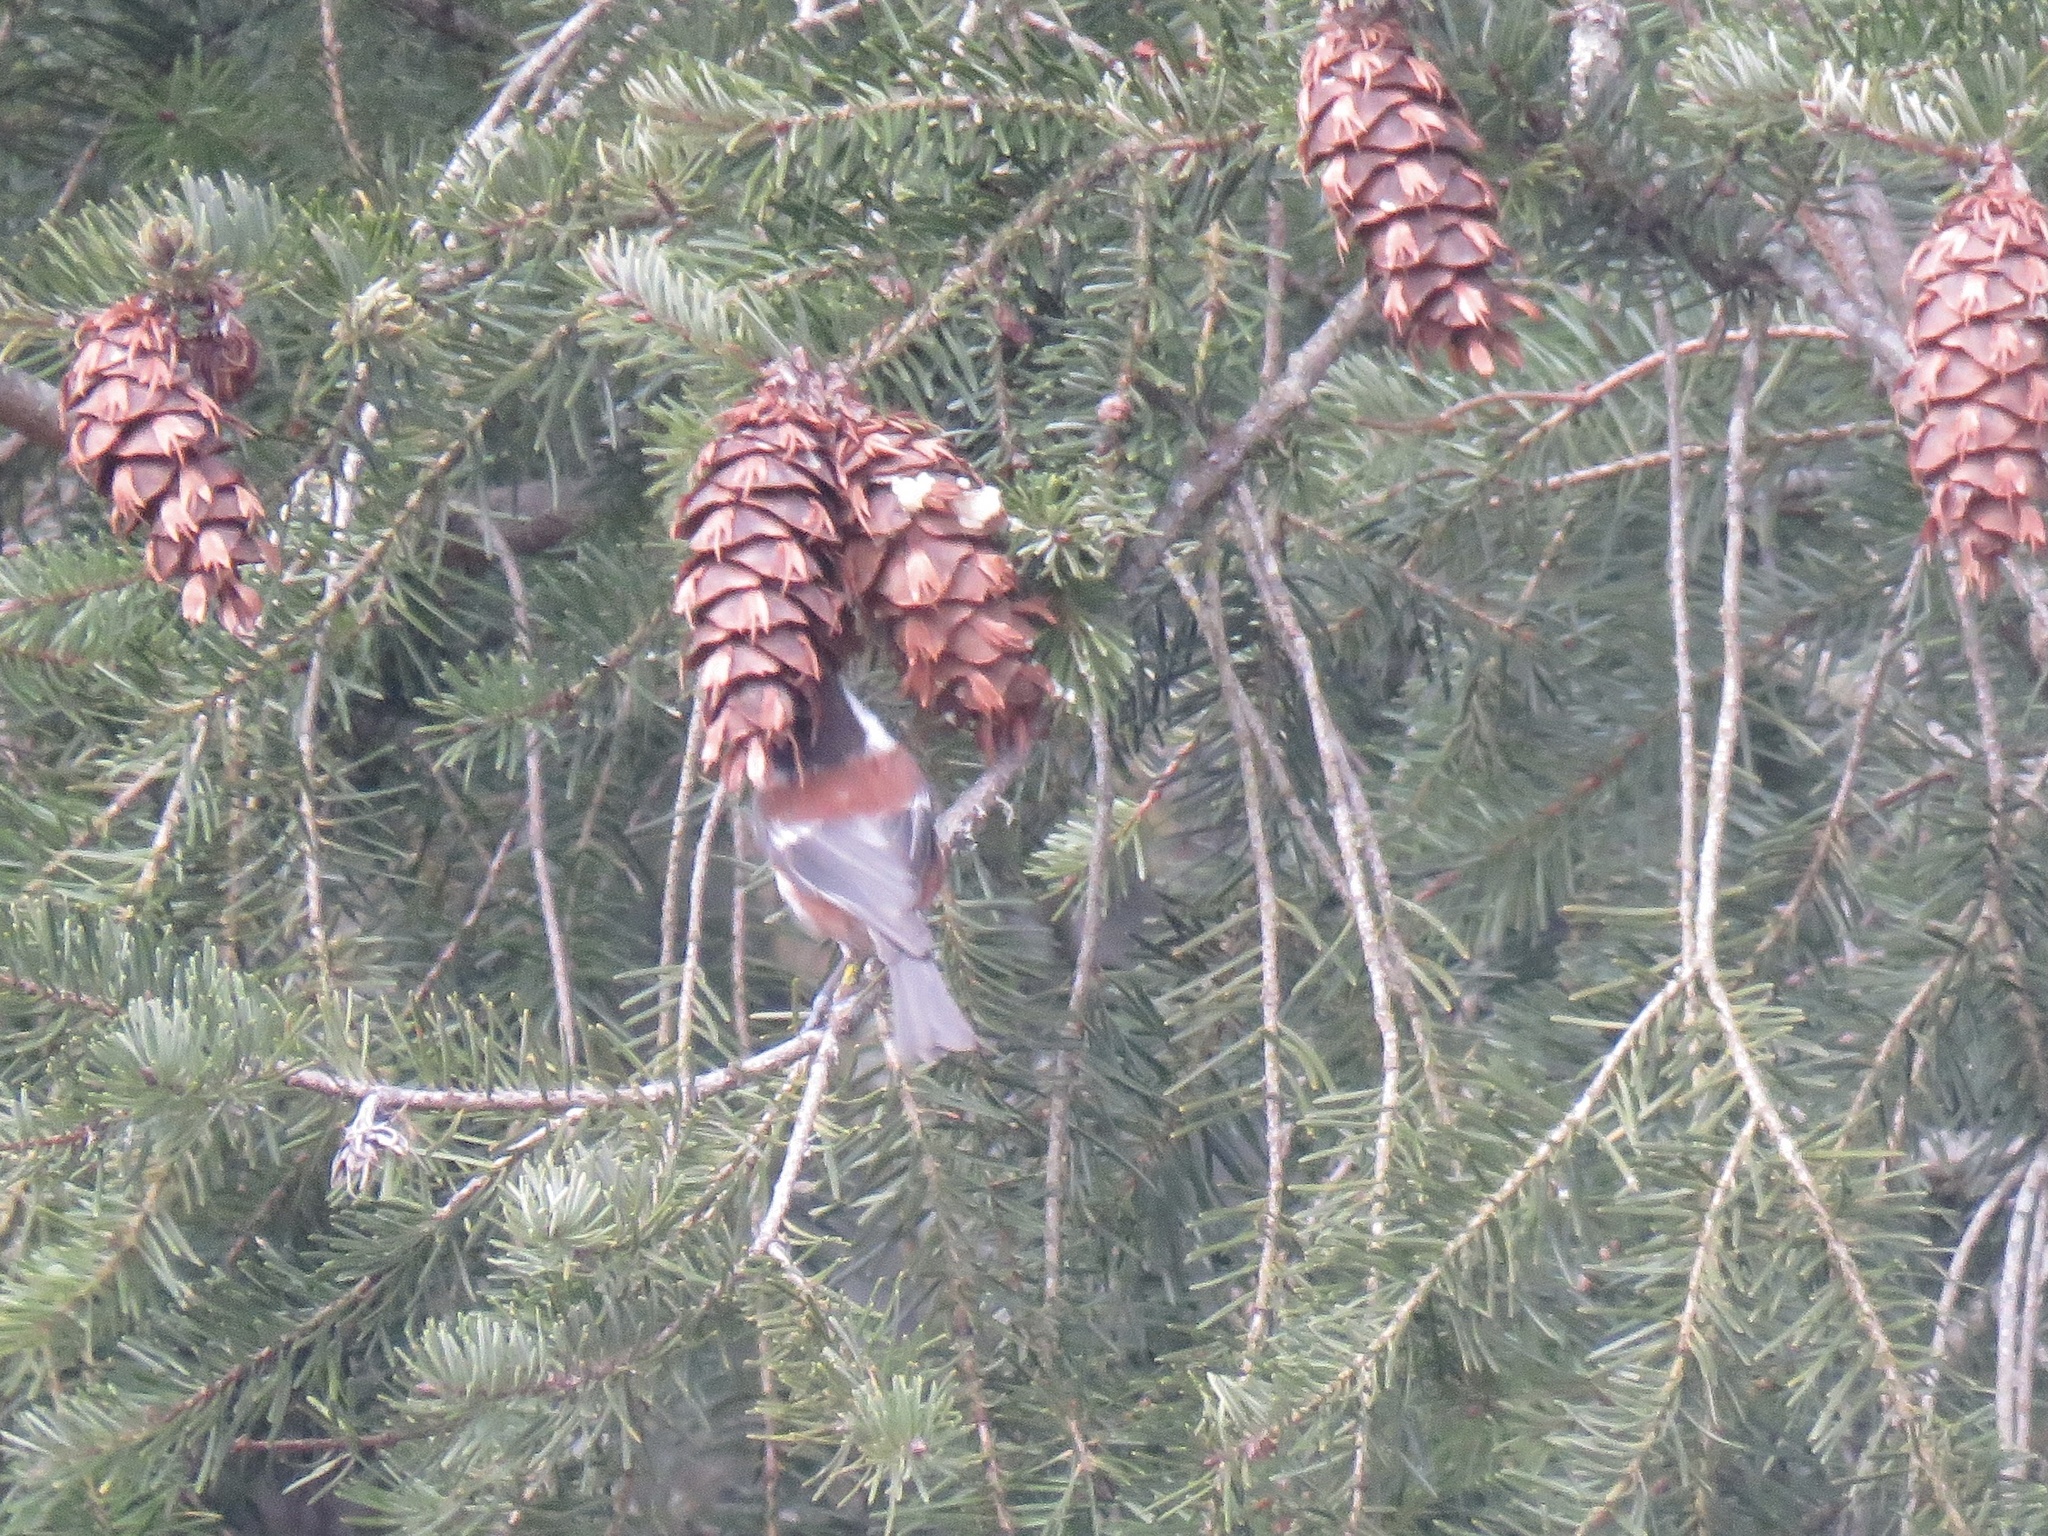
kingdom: Animalia
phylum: Chordata
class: Aves
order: Passeriformes
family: Paridae
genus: Poecile
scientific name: Poecile rufescens
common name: Chestnut-backed chickadee
